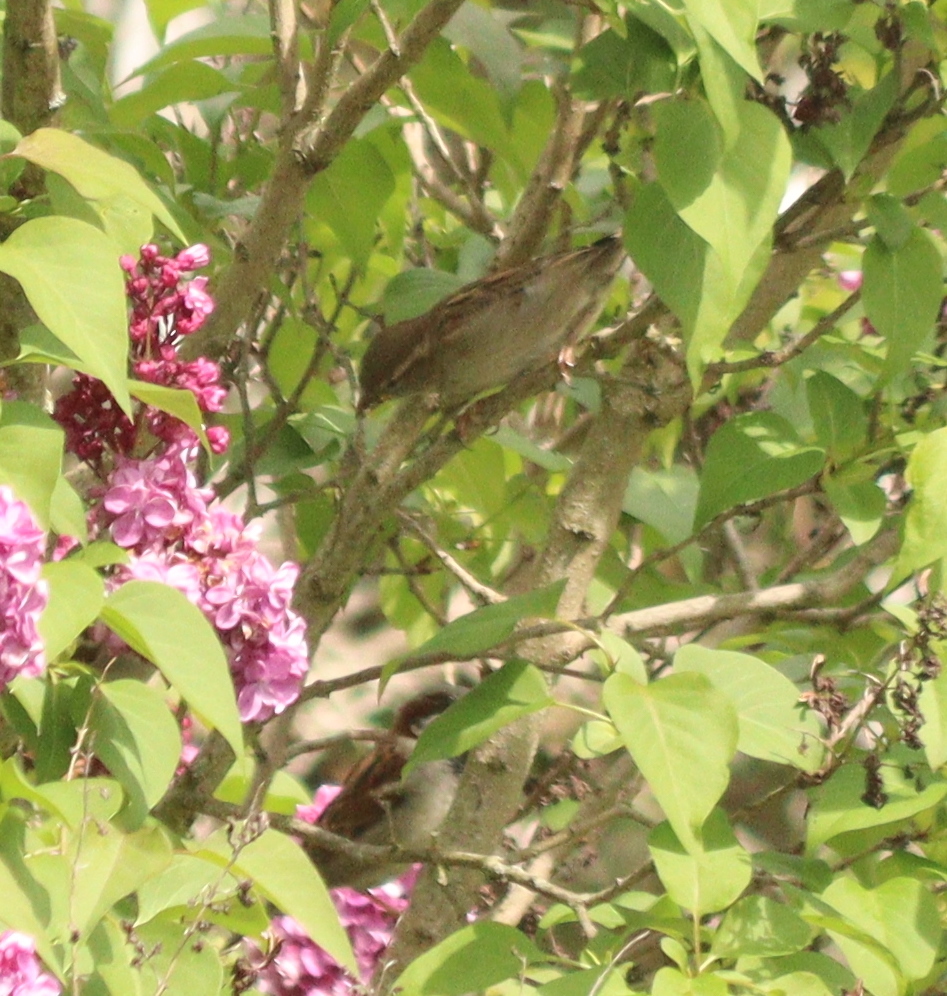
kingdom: Animalia
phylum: Chordata
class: Aves
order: Passeriformes
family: Passeridae
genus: Passer
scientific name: Passer domesticus
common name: House sparrow
